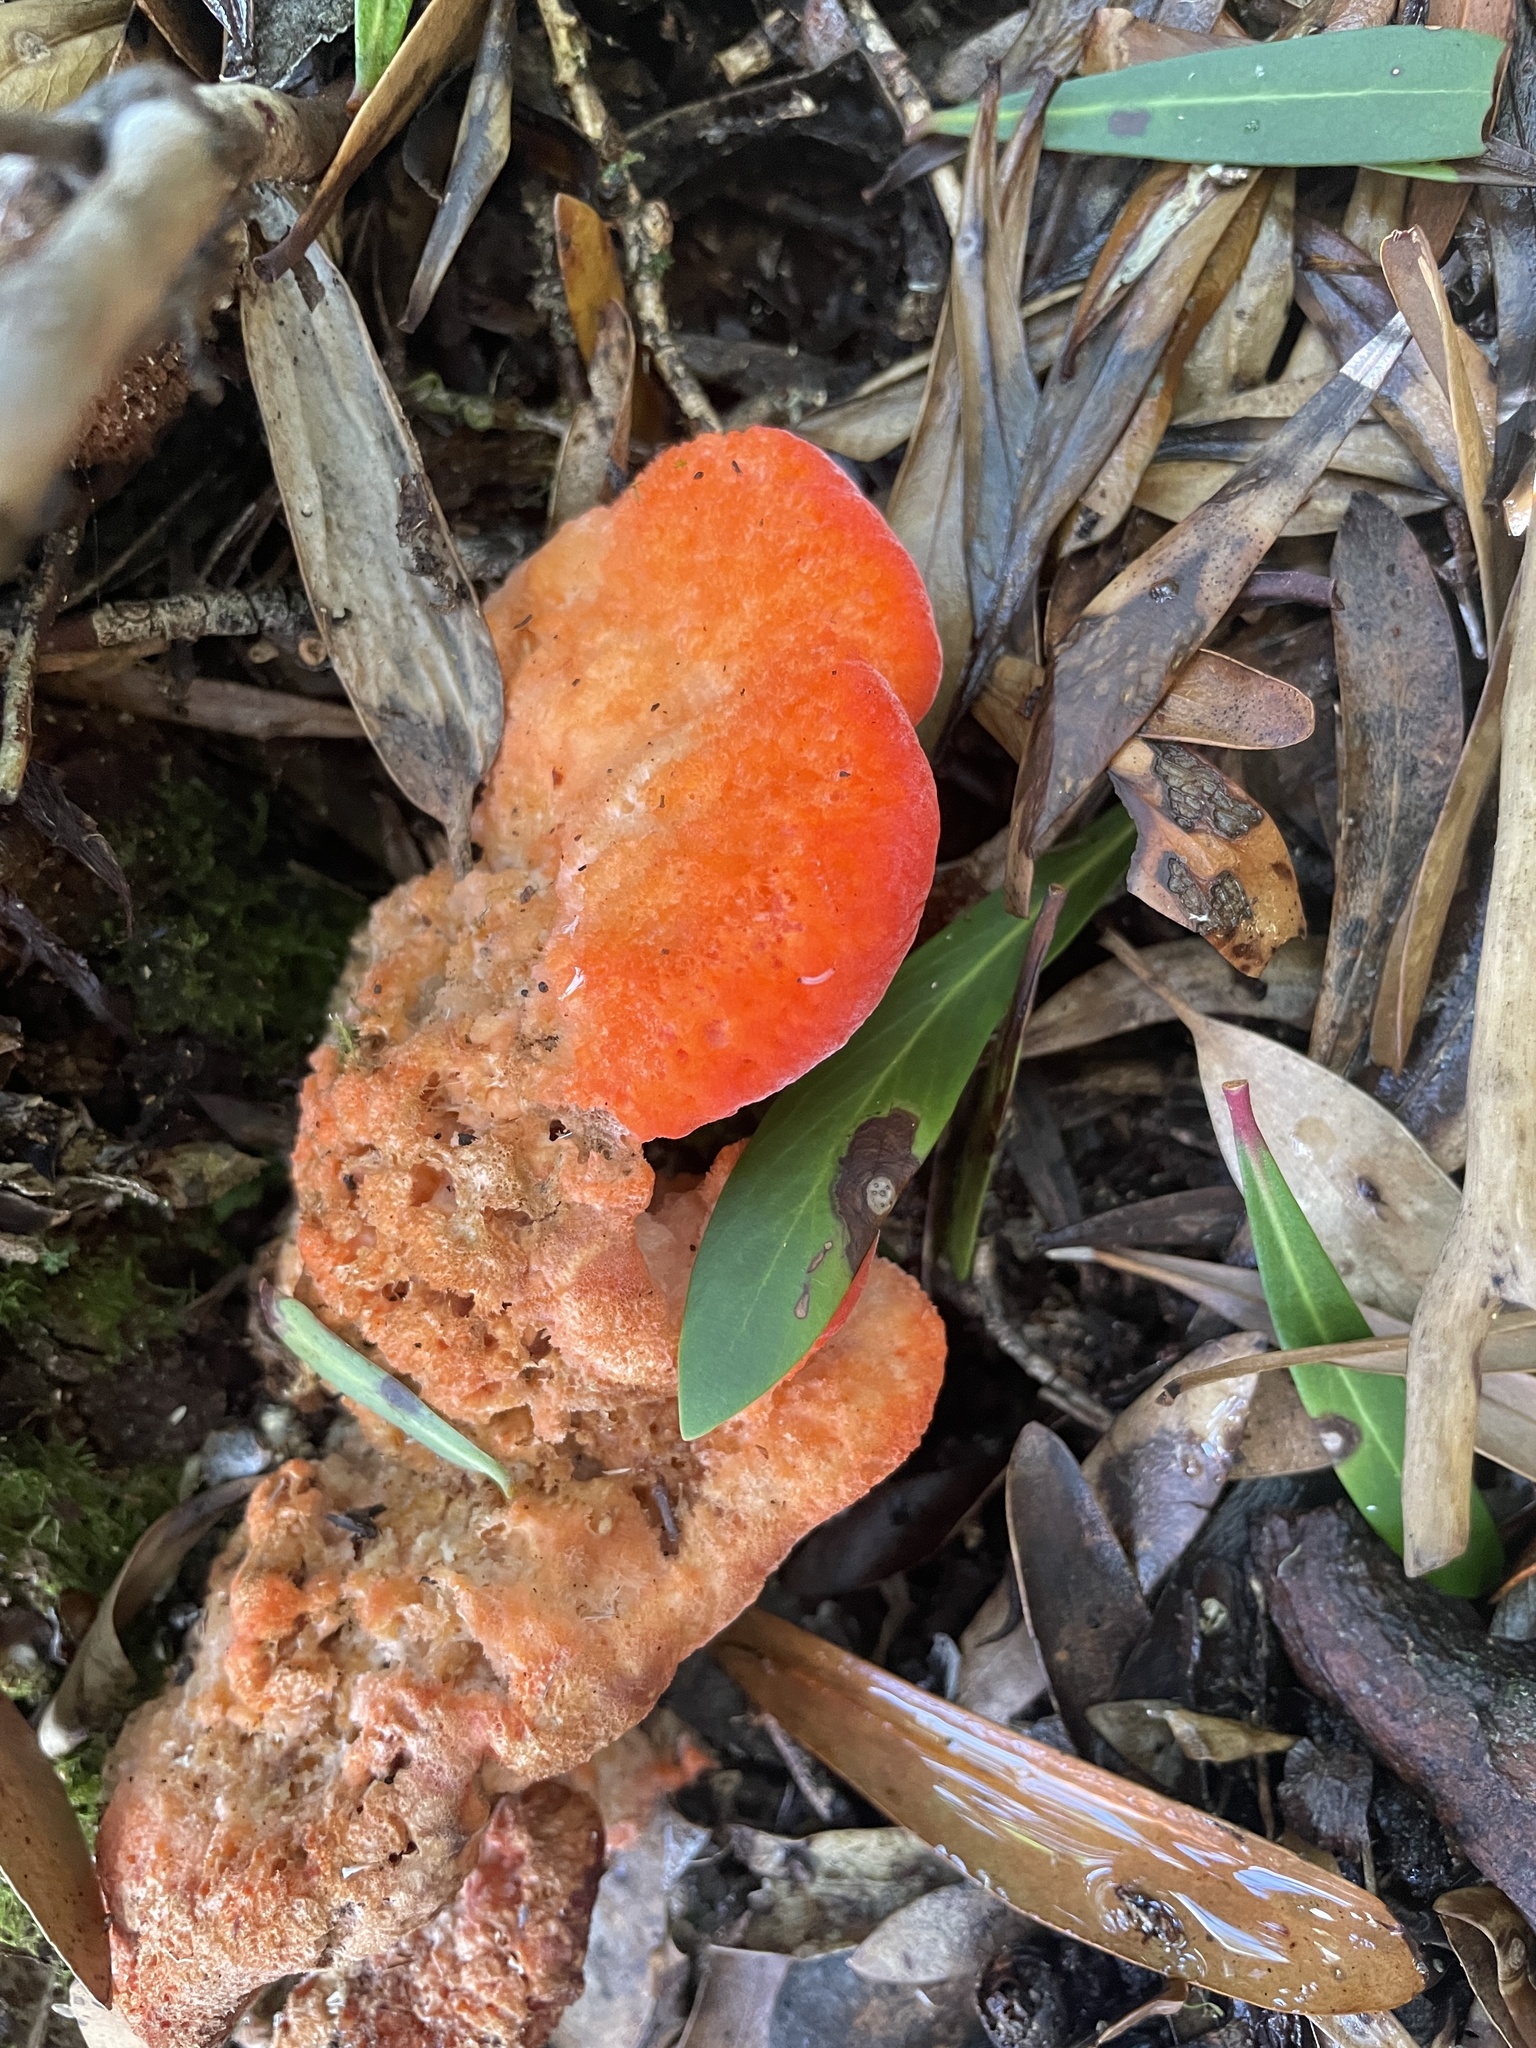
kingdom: Fungi
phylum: Basidiomycota
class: Agaricomycetes
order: Polyporales
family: Incrustoporiaceae
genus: Tyromyces
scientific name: Tyromyces pulcherrimus
